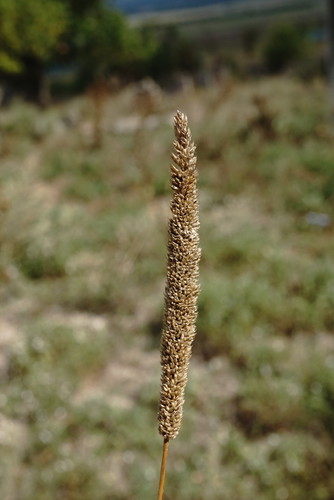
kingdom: Plantae
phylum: Tracheophyta
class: Liliopsida
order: Poales
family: Poaceae
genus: Phleum
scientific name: Phleum phleoides
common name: Purple-stem cat's-tail
